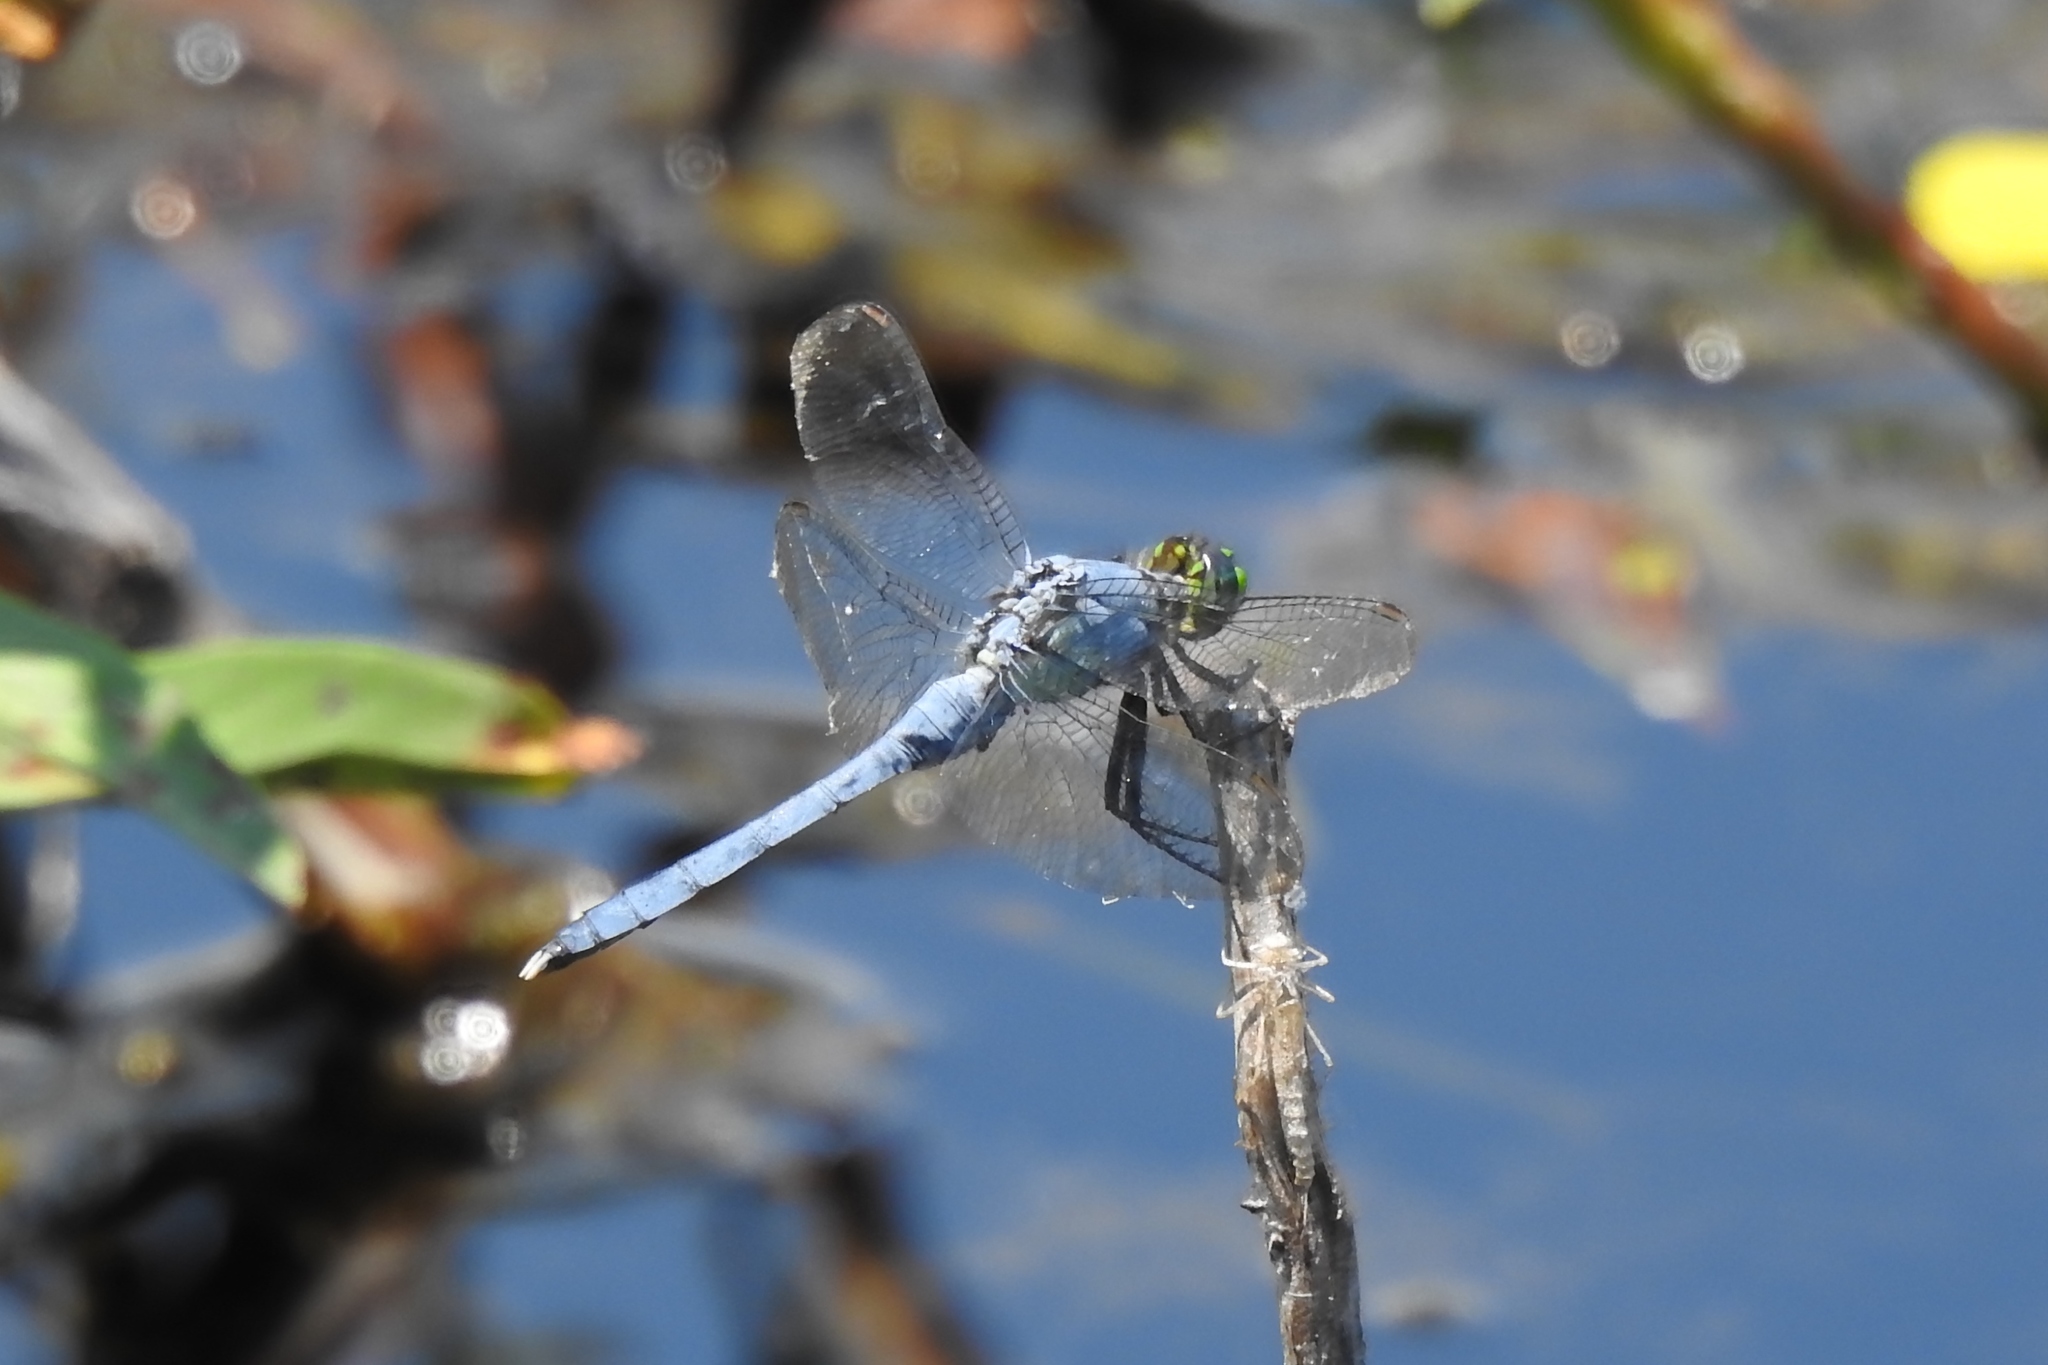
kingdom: Animalia
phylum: Arthropoda
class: Insecta
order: Odonata
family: Libellulidae
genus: Erythemis
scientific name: Erythemis simplicicollis
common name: Eastern pondhawk
